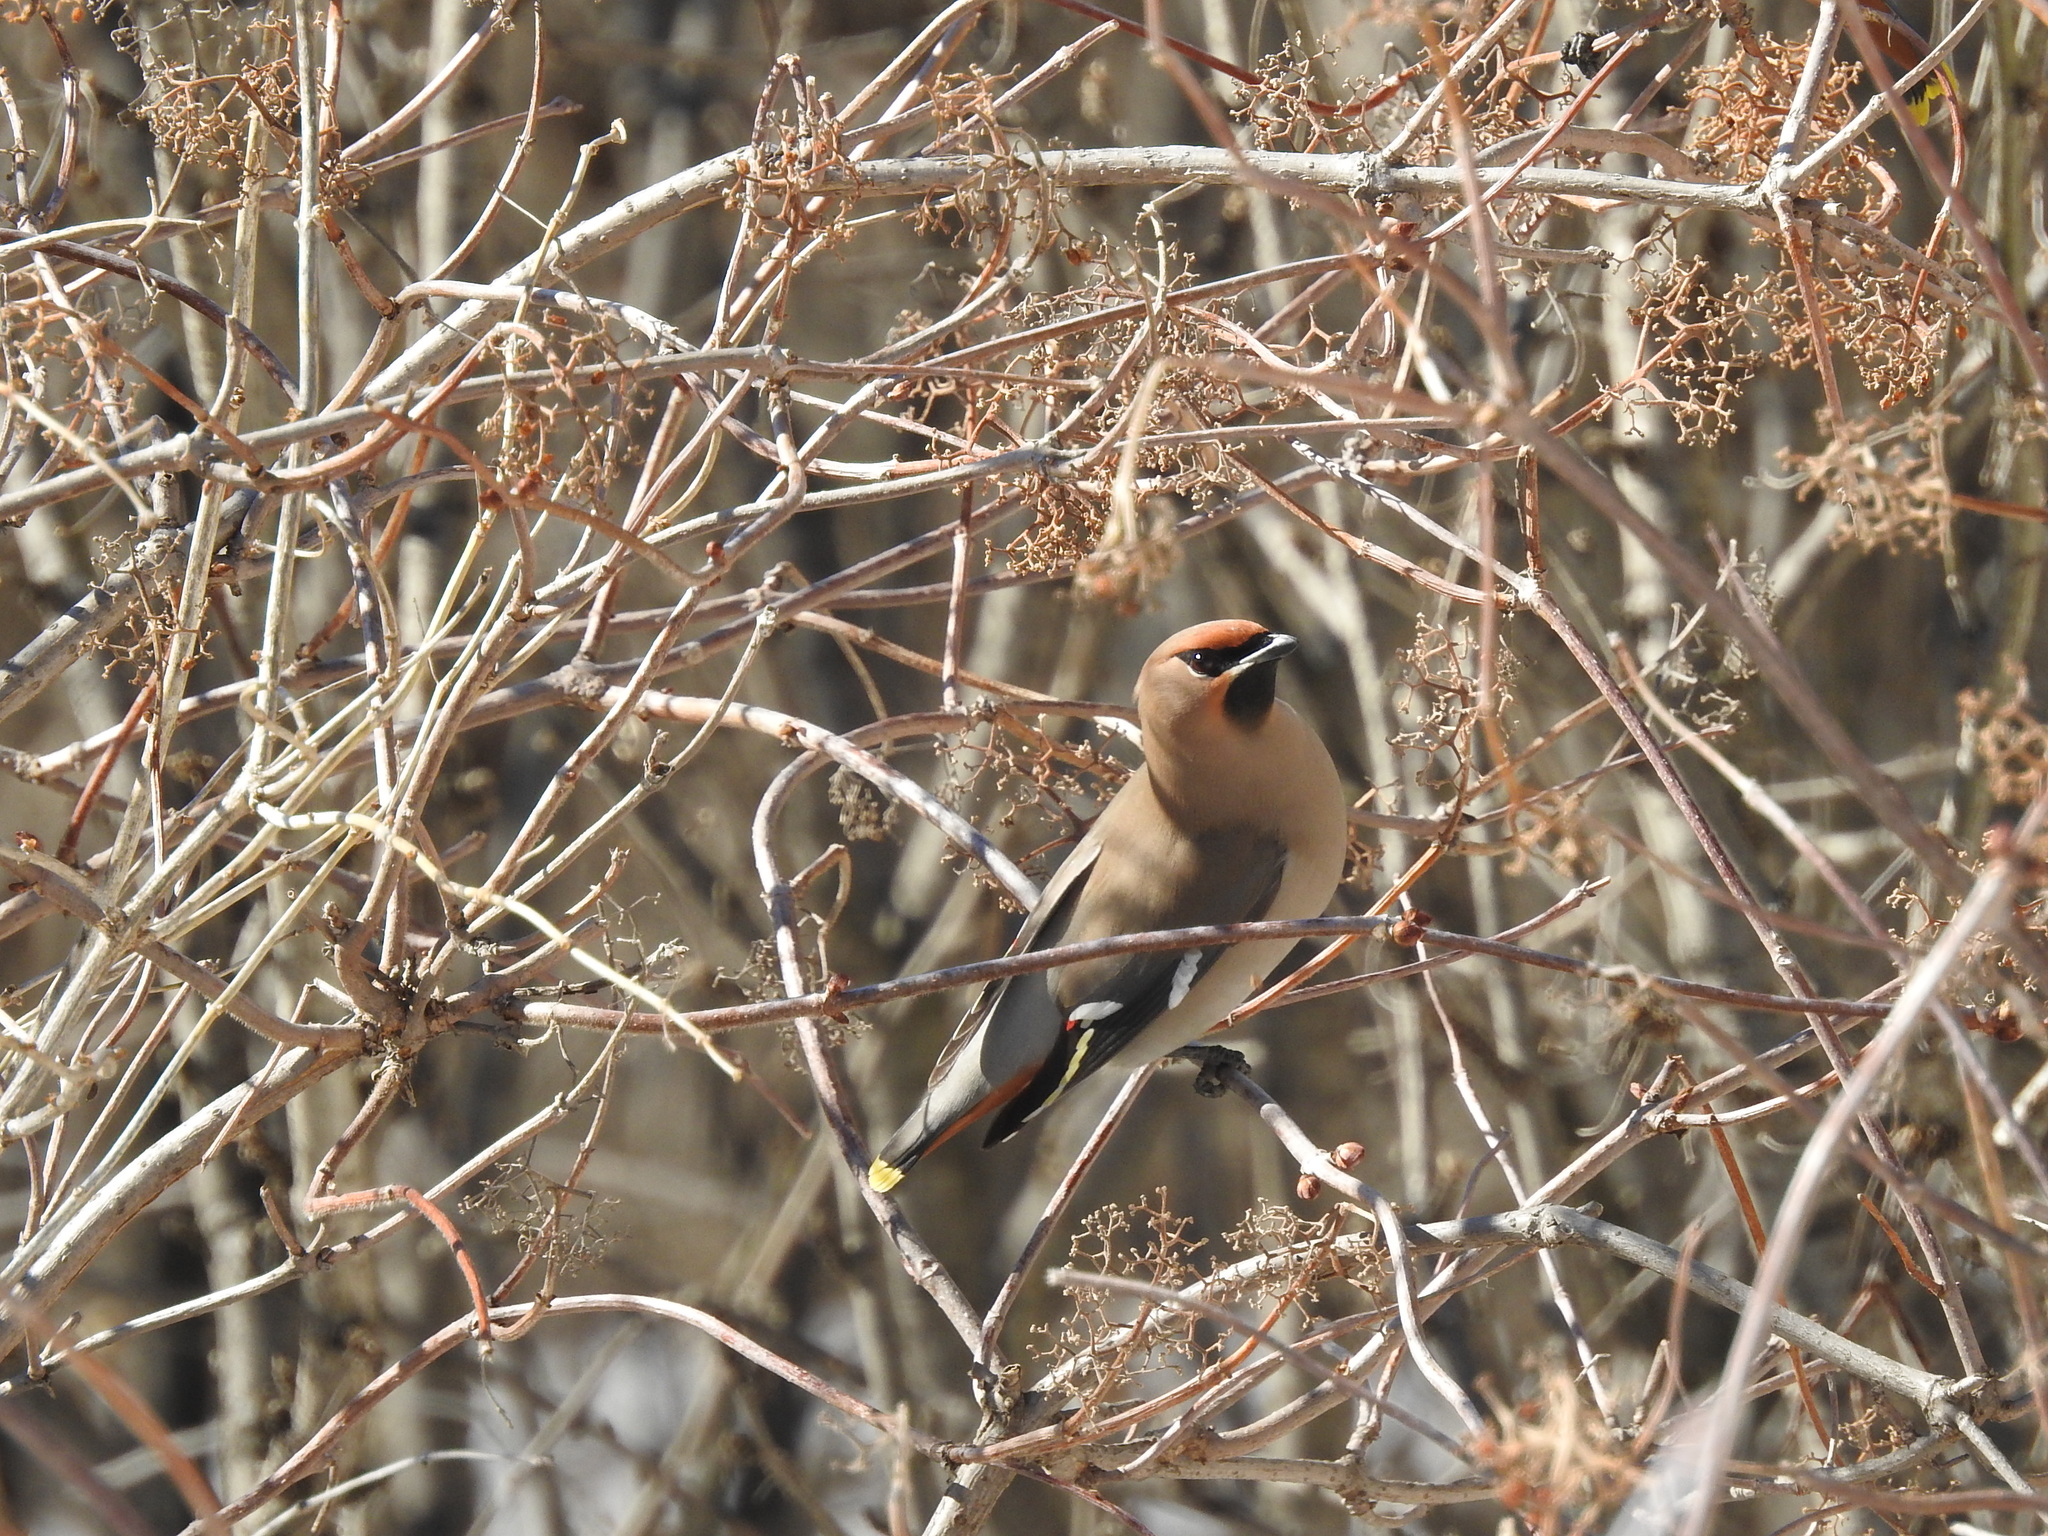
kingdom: Animalia
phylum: Chordata
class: Aves
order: Passeriformes
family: Bombycillidae
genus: Bombycilla
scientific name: Bombycilla garrulus
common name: Bohemian waxwing
